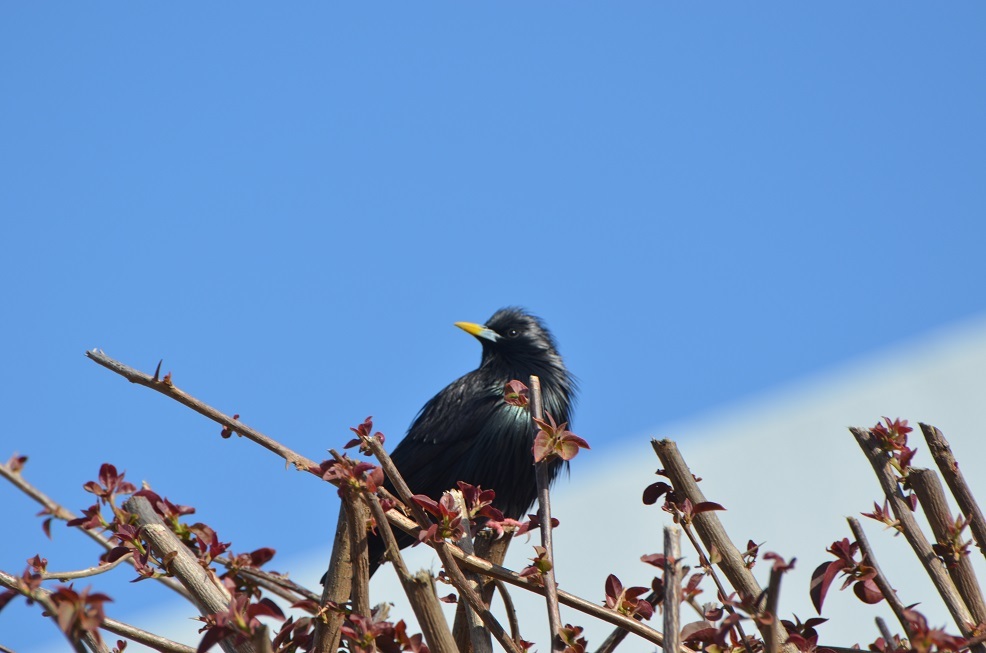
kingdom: Animalia
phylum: Chordata
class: Aves
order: Passeriformes
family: Sturnidae
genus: Sturnus
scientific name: Sturnus unicolor
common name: Spotless starling
